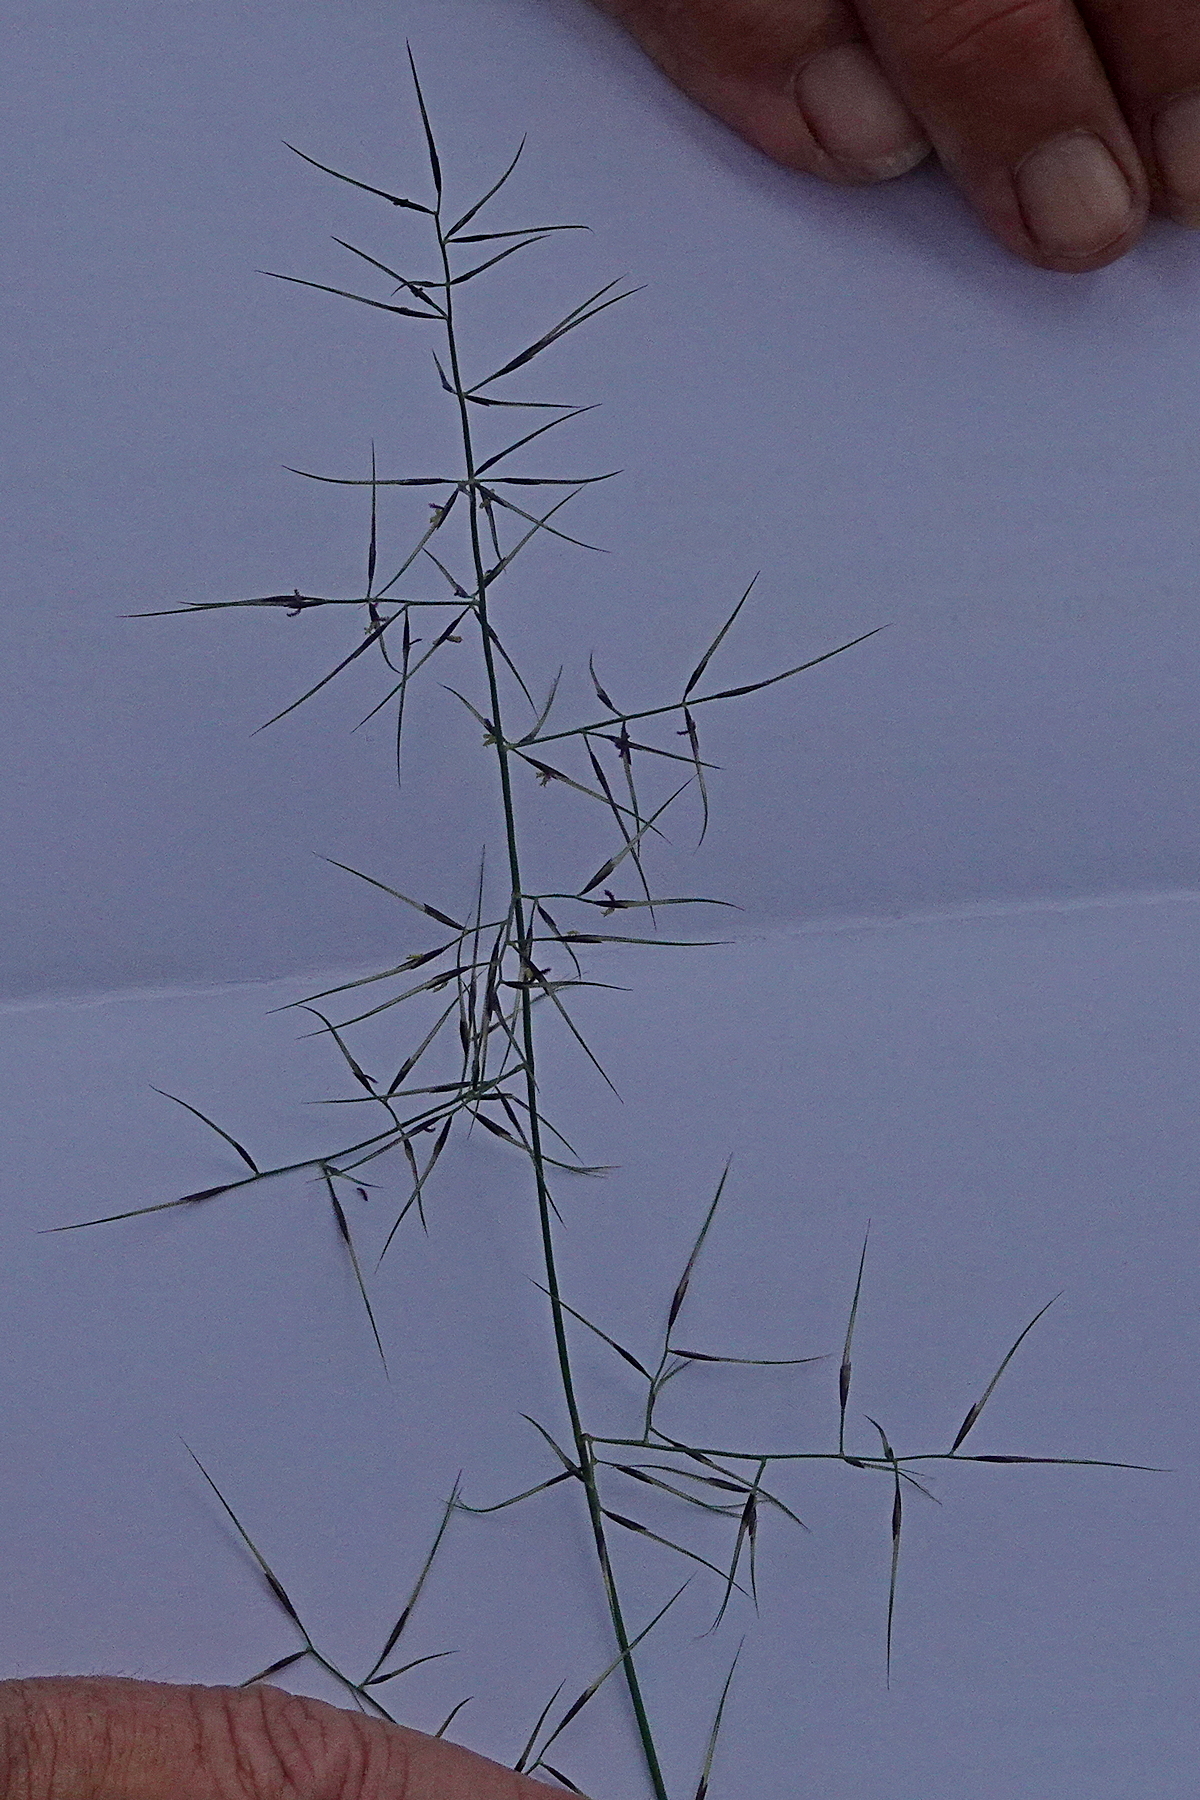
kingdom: Plantae
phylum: Tracheophyta
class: Liliopsida
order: Poales
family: Poaceae
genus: Aristida
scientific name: Aristida vagans
